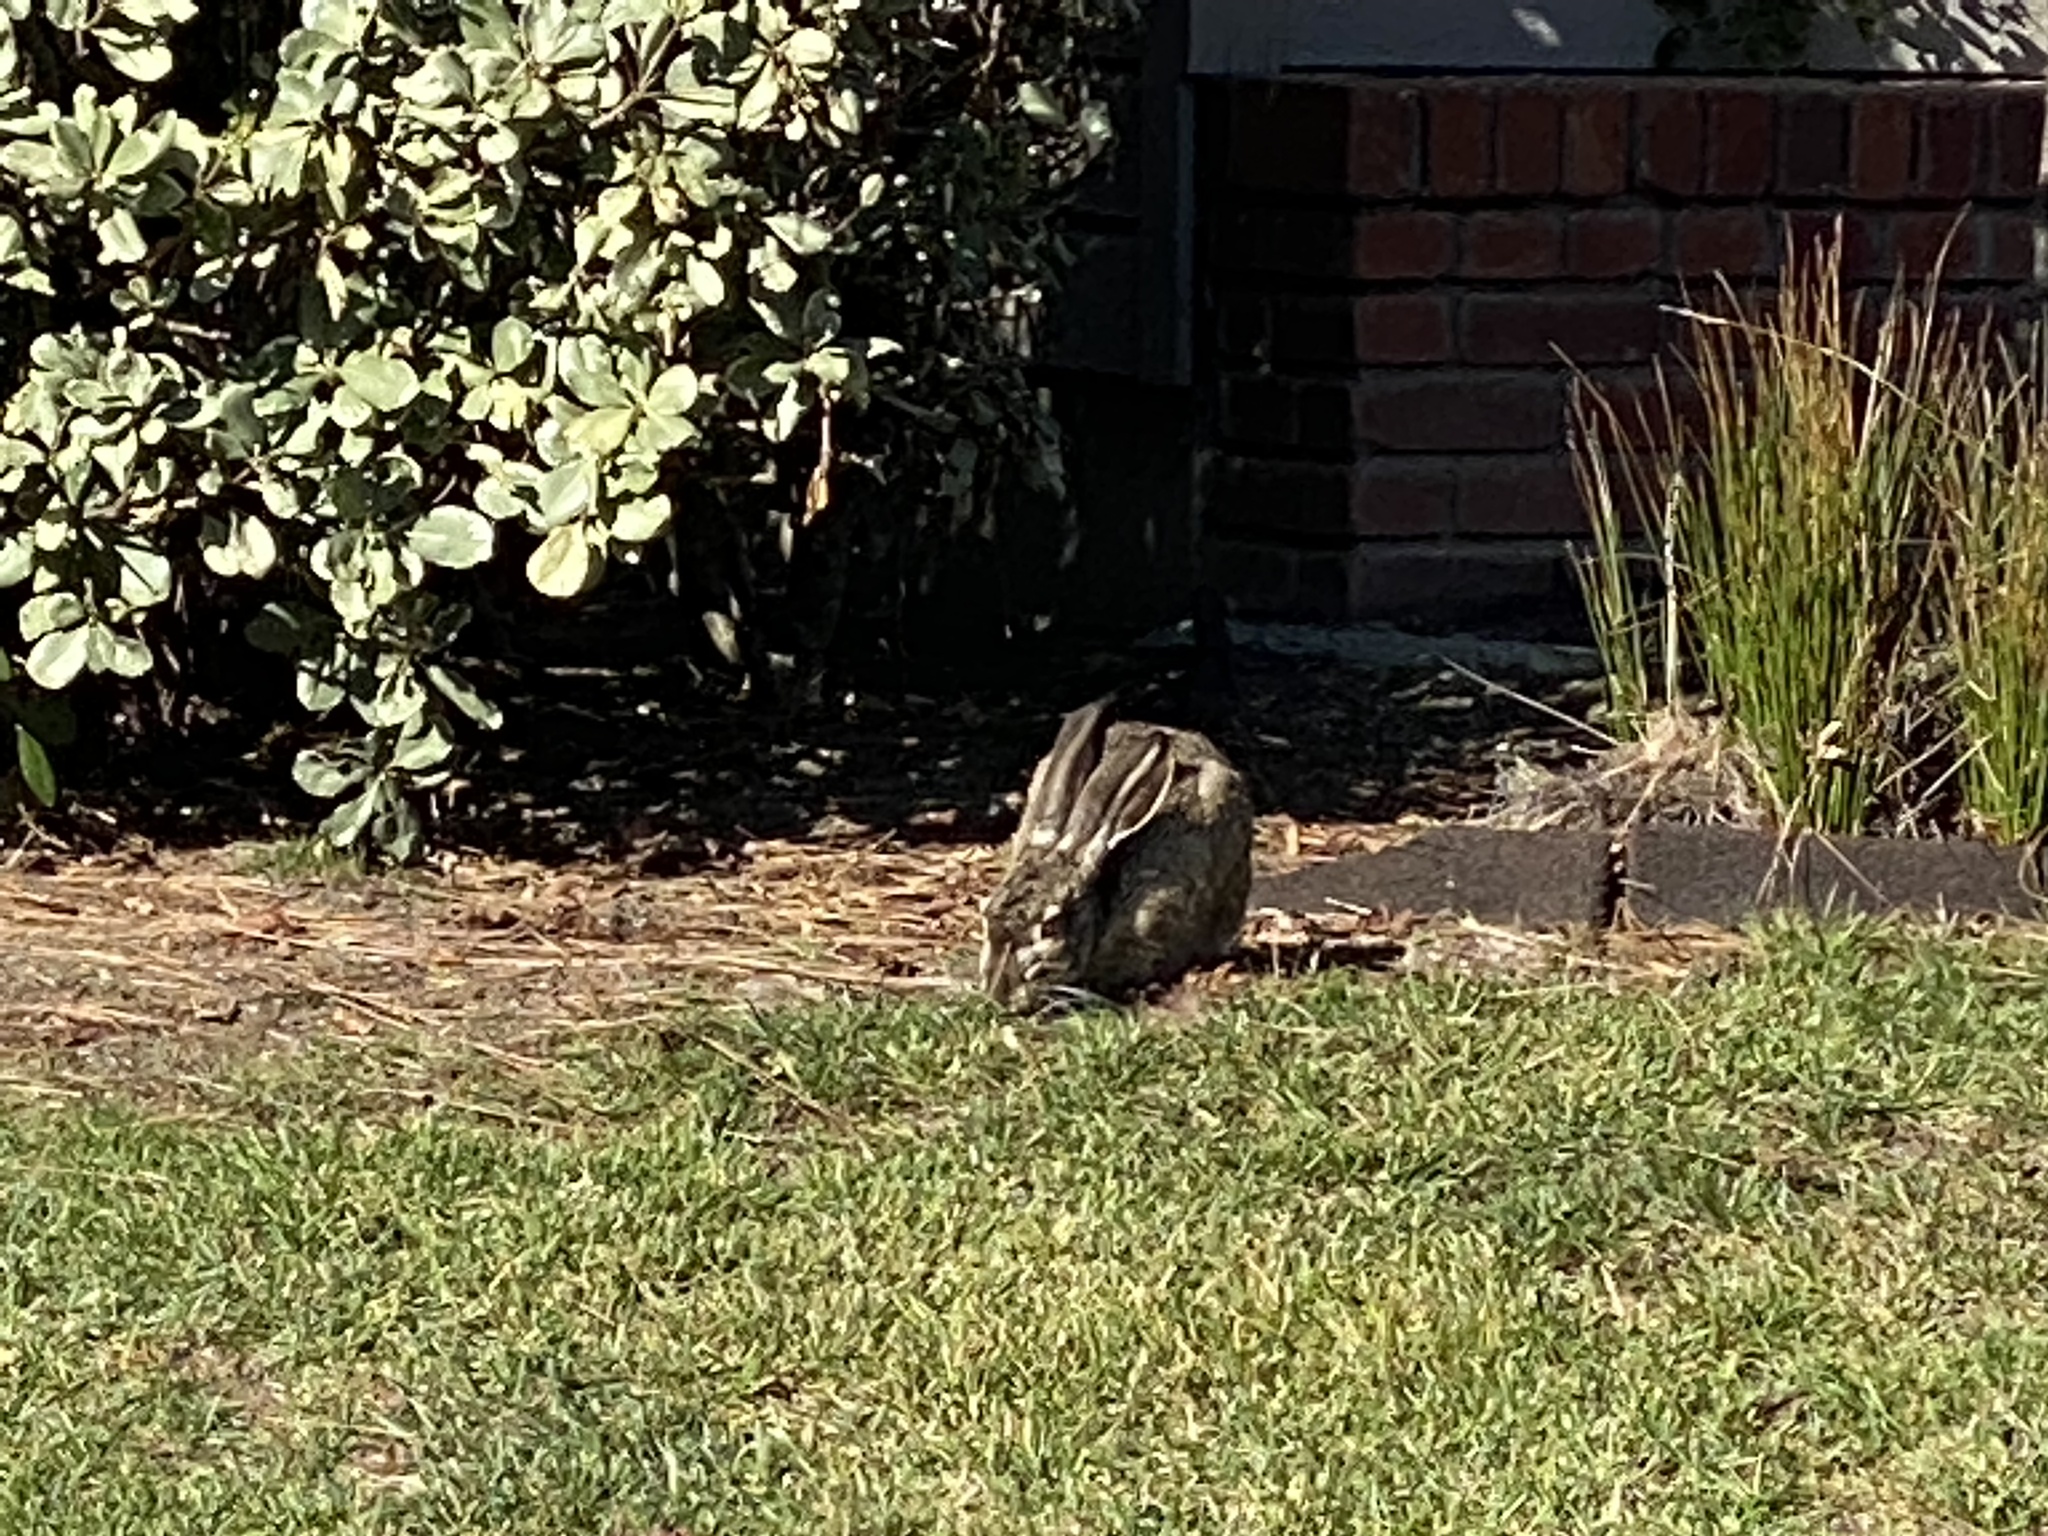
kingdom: Animalia
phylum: Chordata
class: Mammalia
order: Lagomorpha
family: Leporidae
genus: Lepus
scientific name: Lepus californicus
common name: Black-tailed jackrabbit
